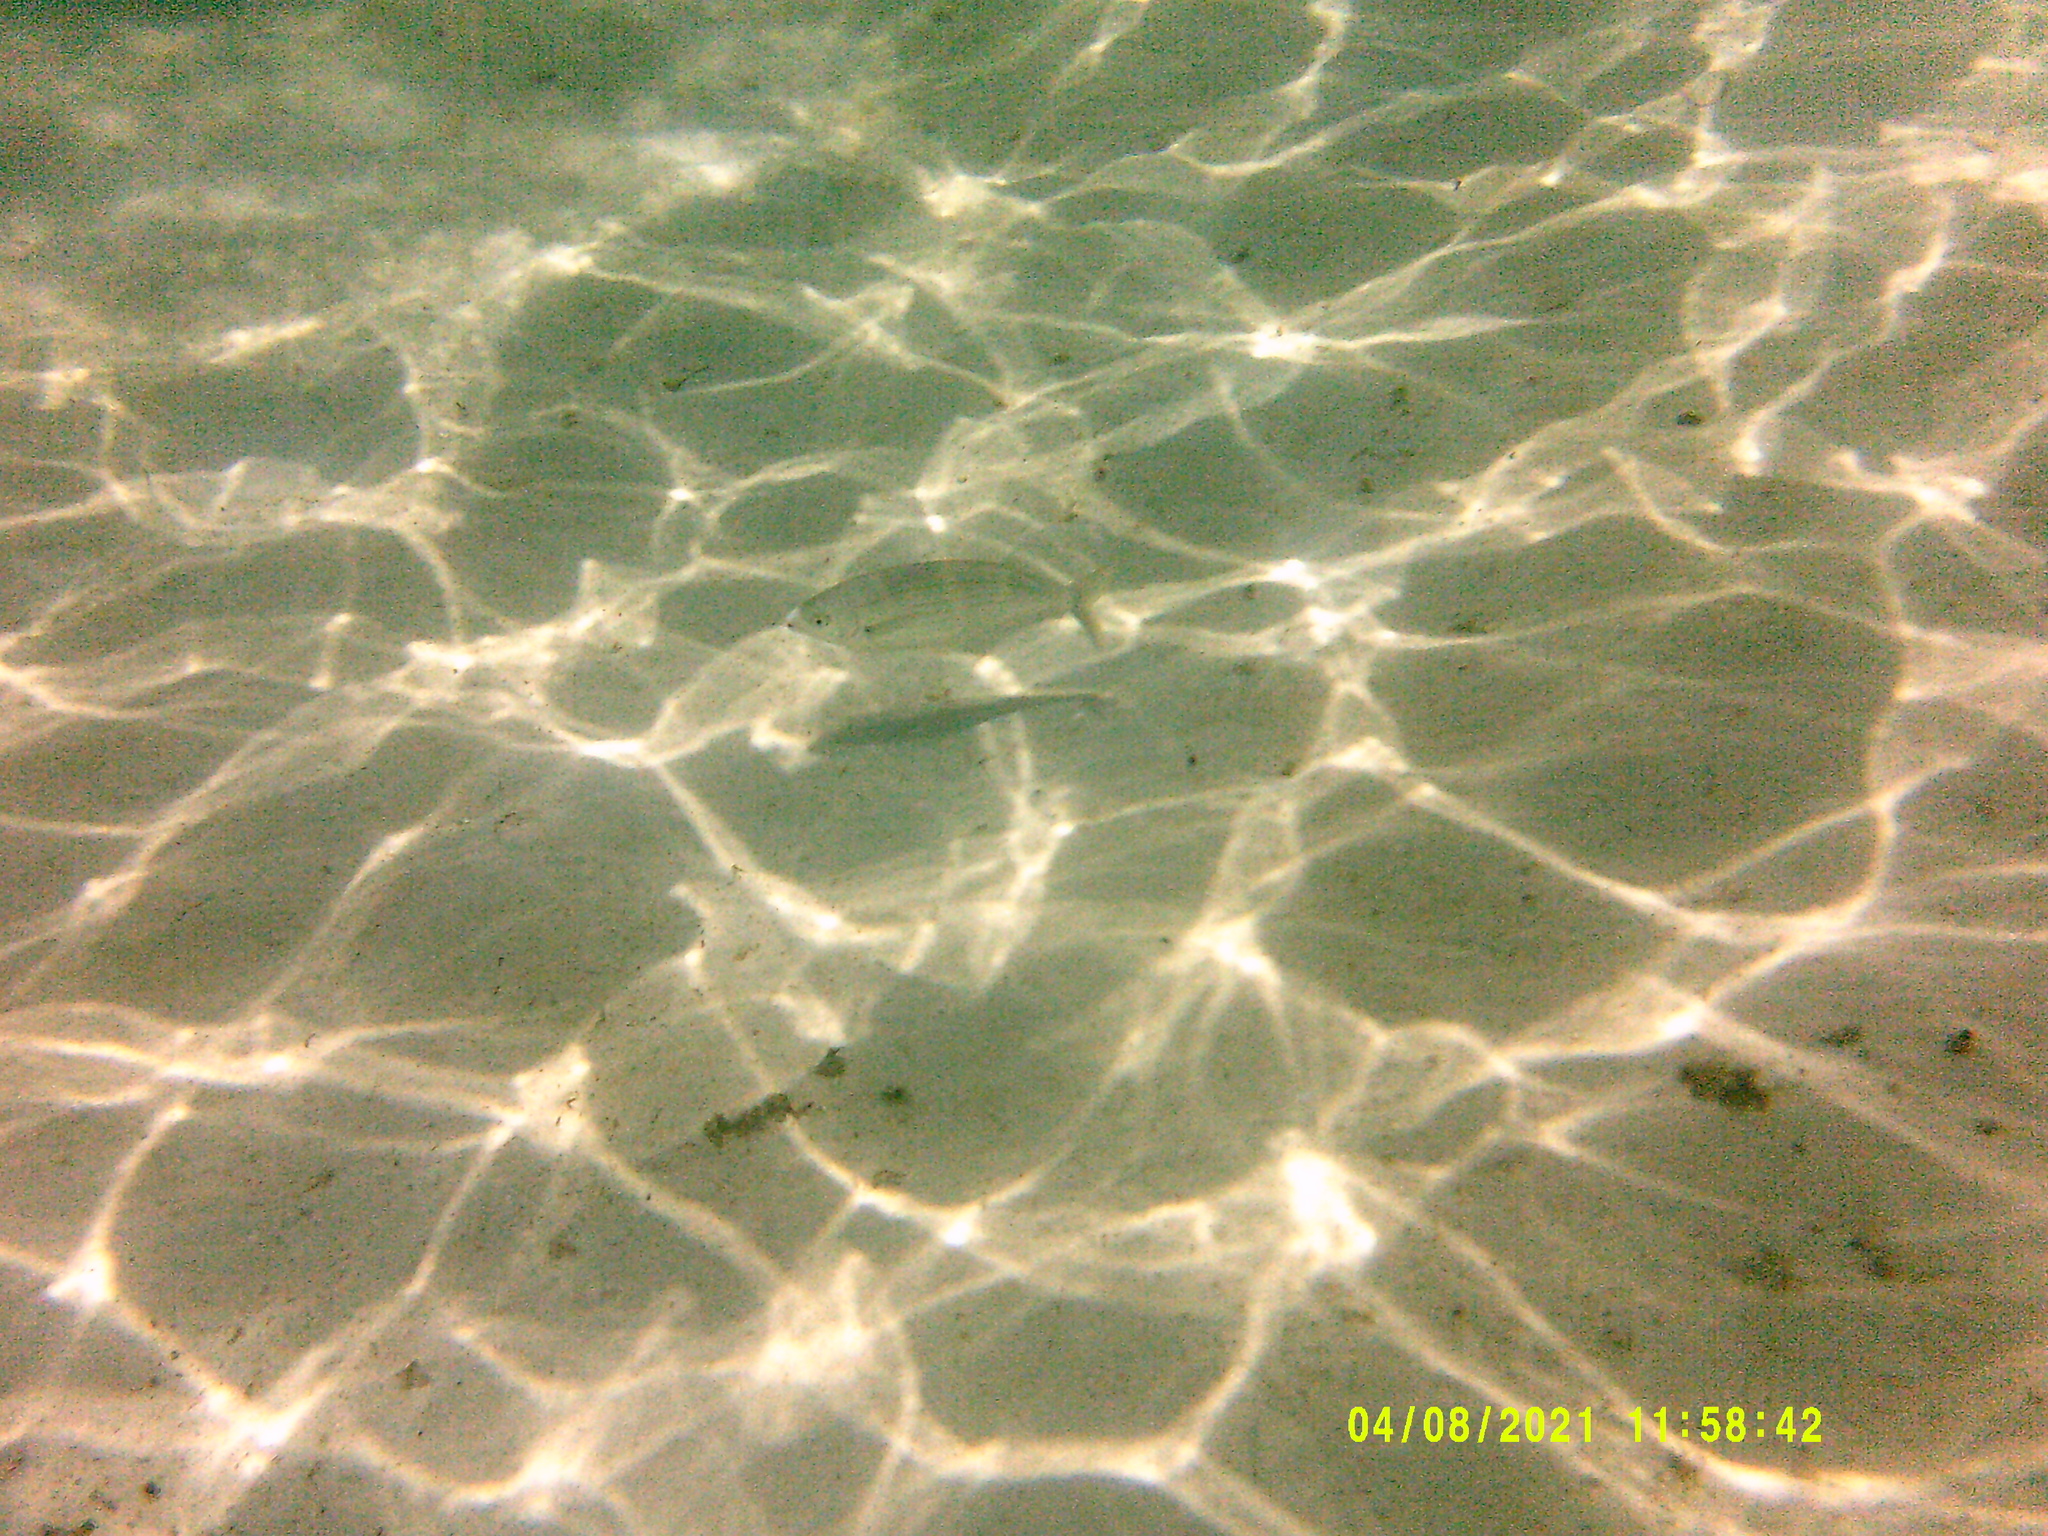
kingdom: Animalia
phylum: Chordata
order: Perciformes
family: Sparidae
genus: Sarpa
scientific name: Sarpa salpa
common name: Salema
